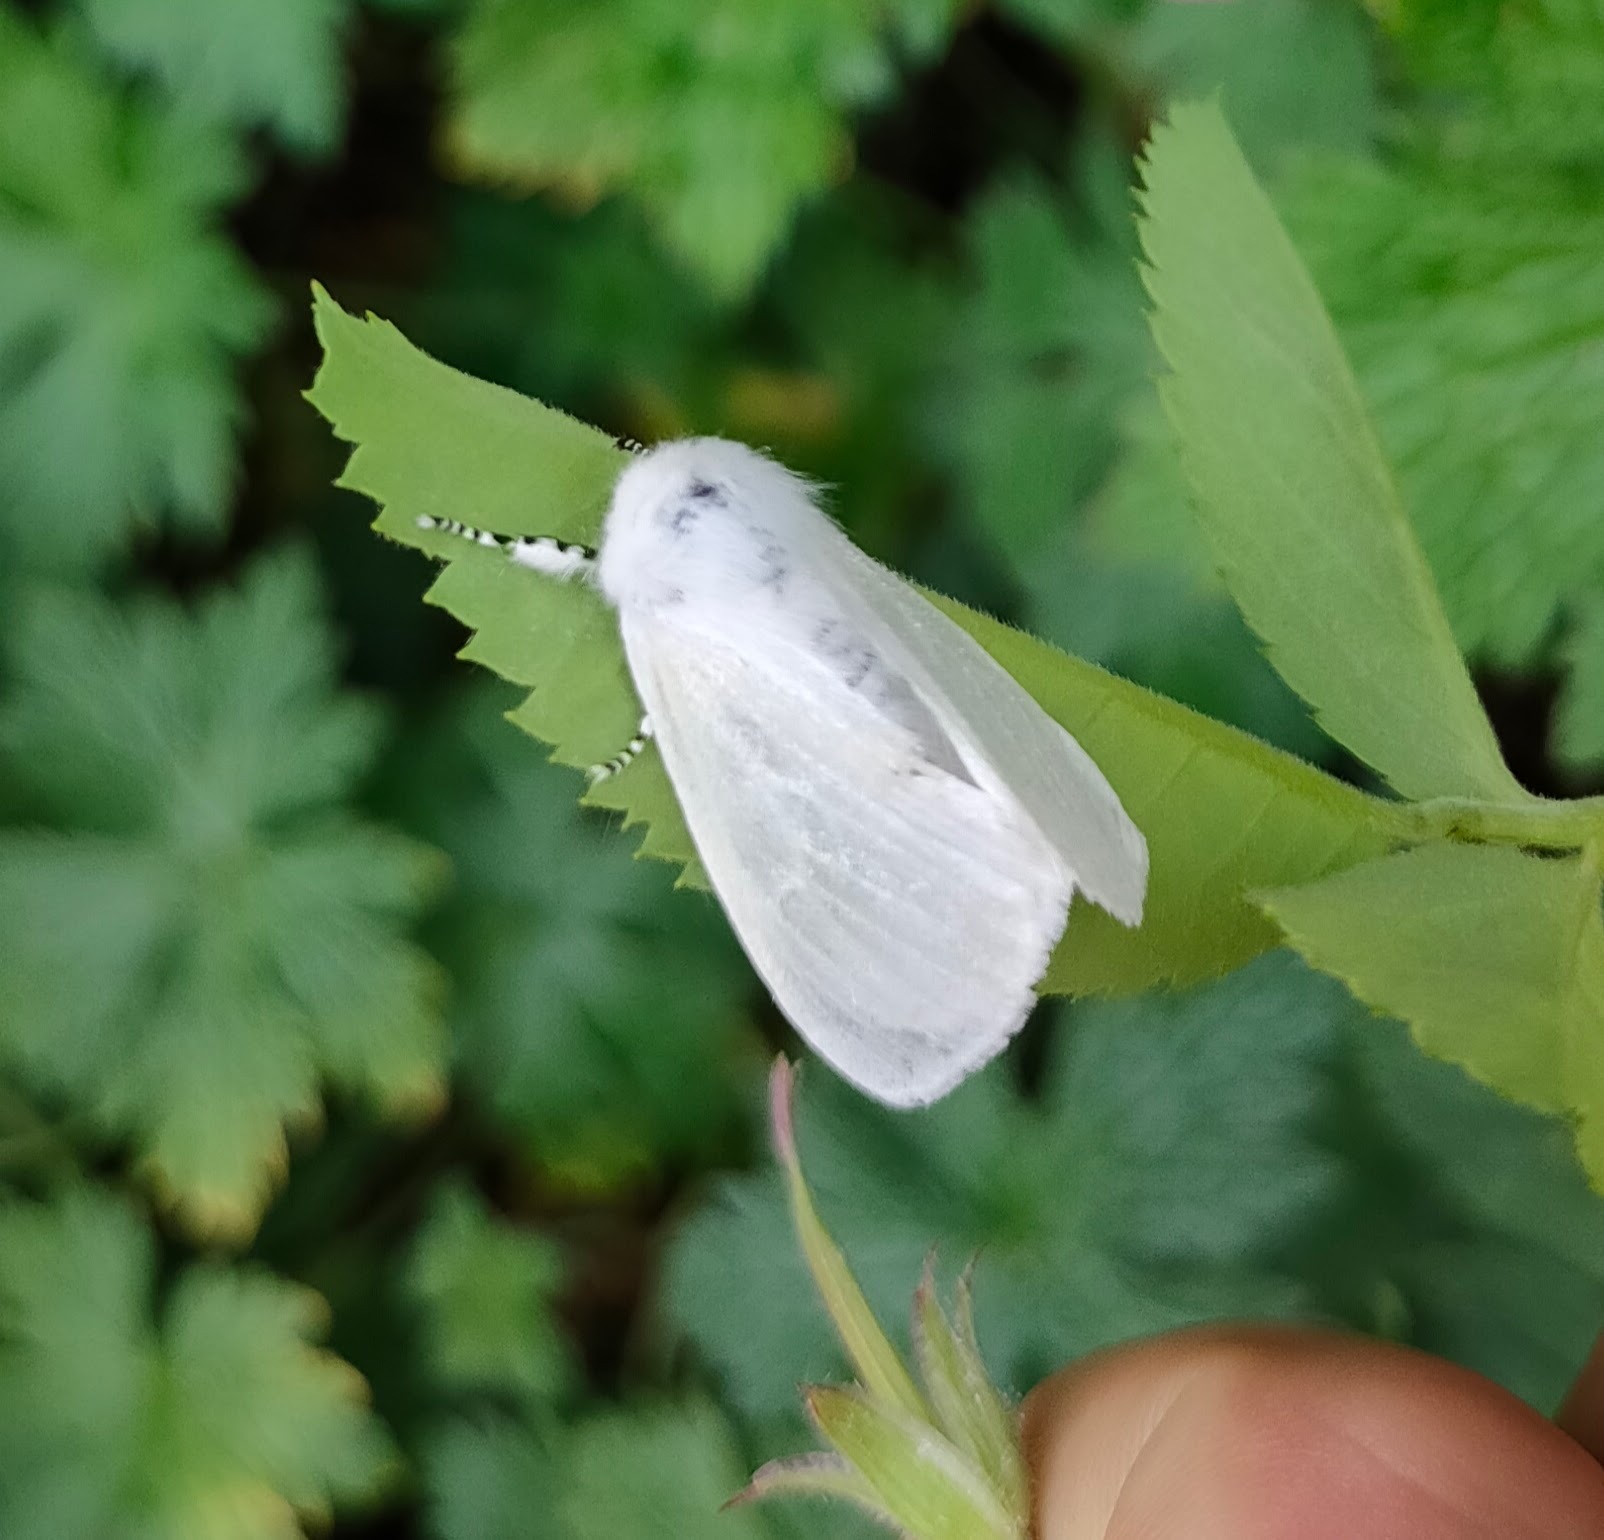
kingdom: Animalia
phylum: Arthropoda
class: Insecta
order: Lepidoptera
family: Erebidae
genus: Leucoma
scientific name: Leucoma salicis
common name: White satin moth
